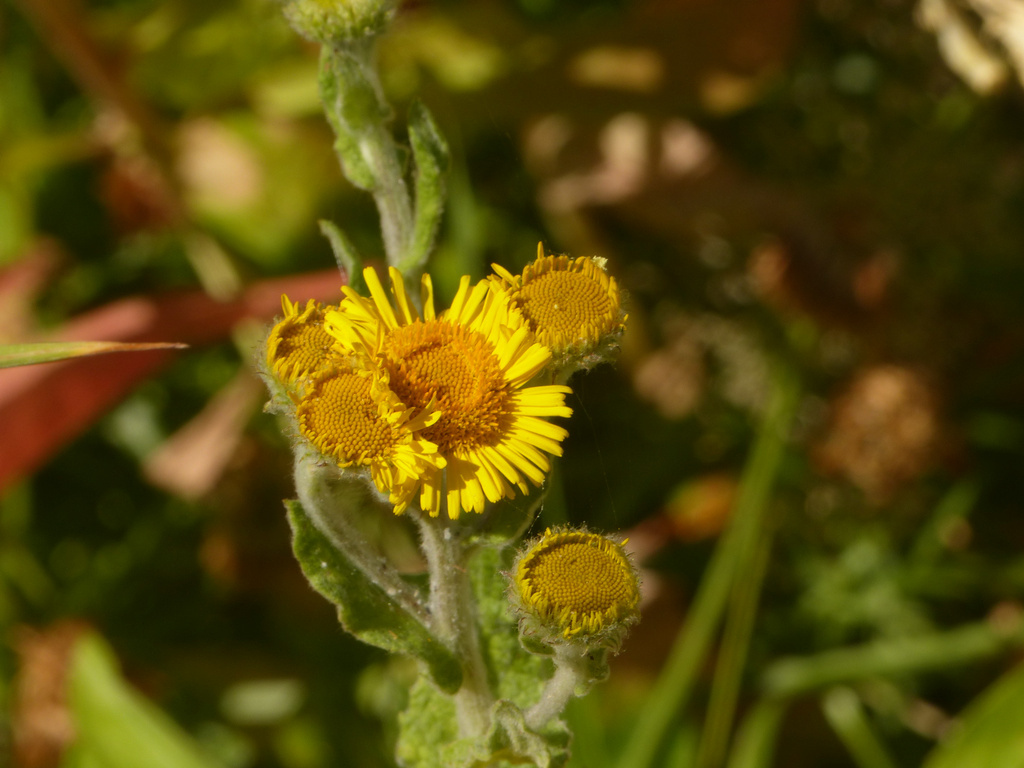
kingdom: Plantae
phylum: Tracheophyta
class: Magnoliopsida
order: Asterales
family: Asteraceae
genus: Pulicaria
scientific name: Pulicaria dysenterica
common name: Common fleabane
